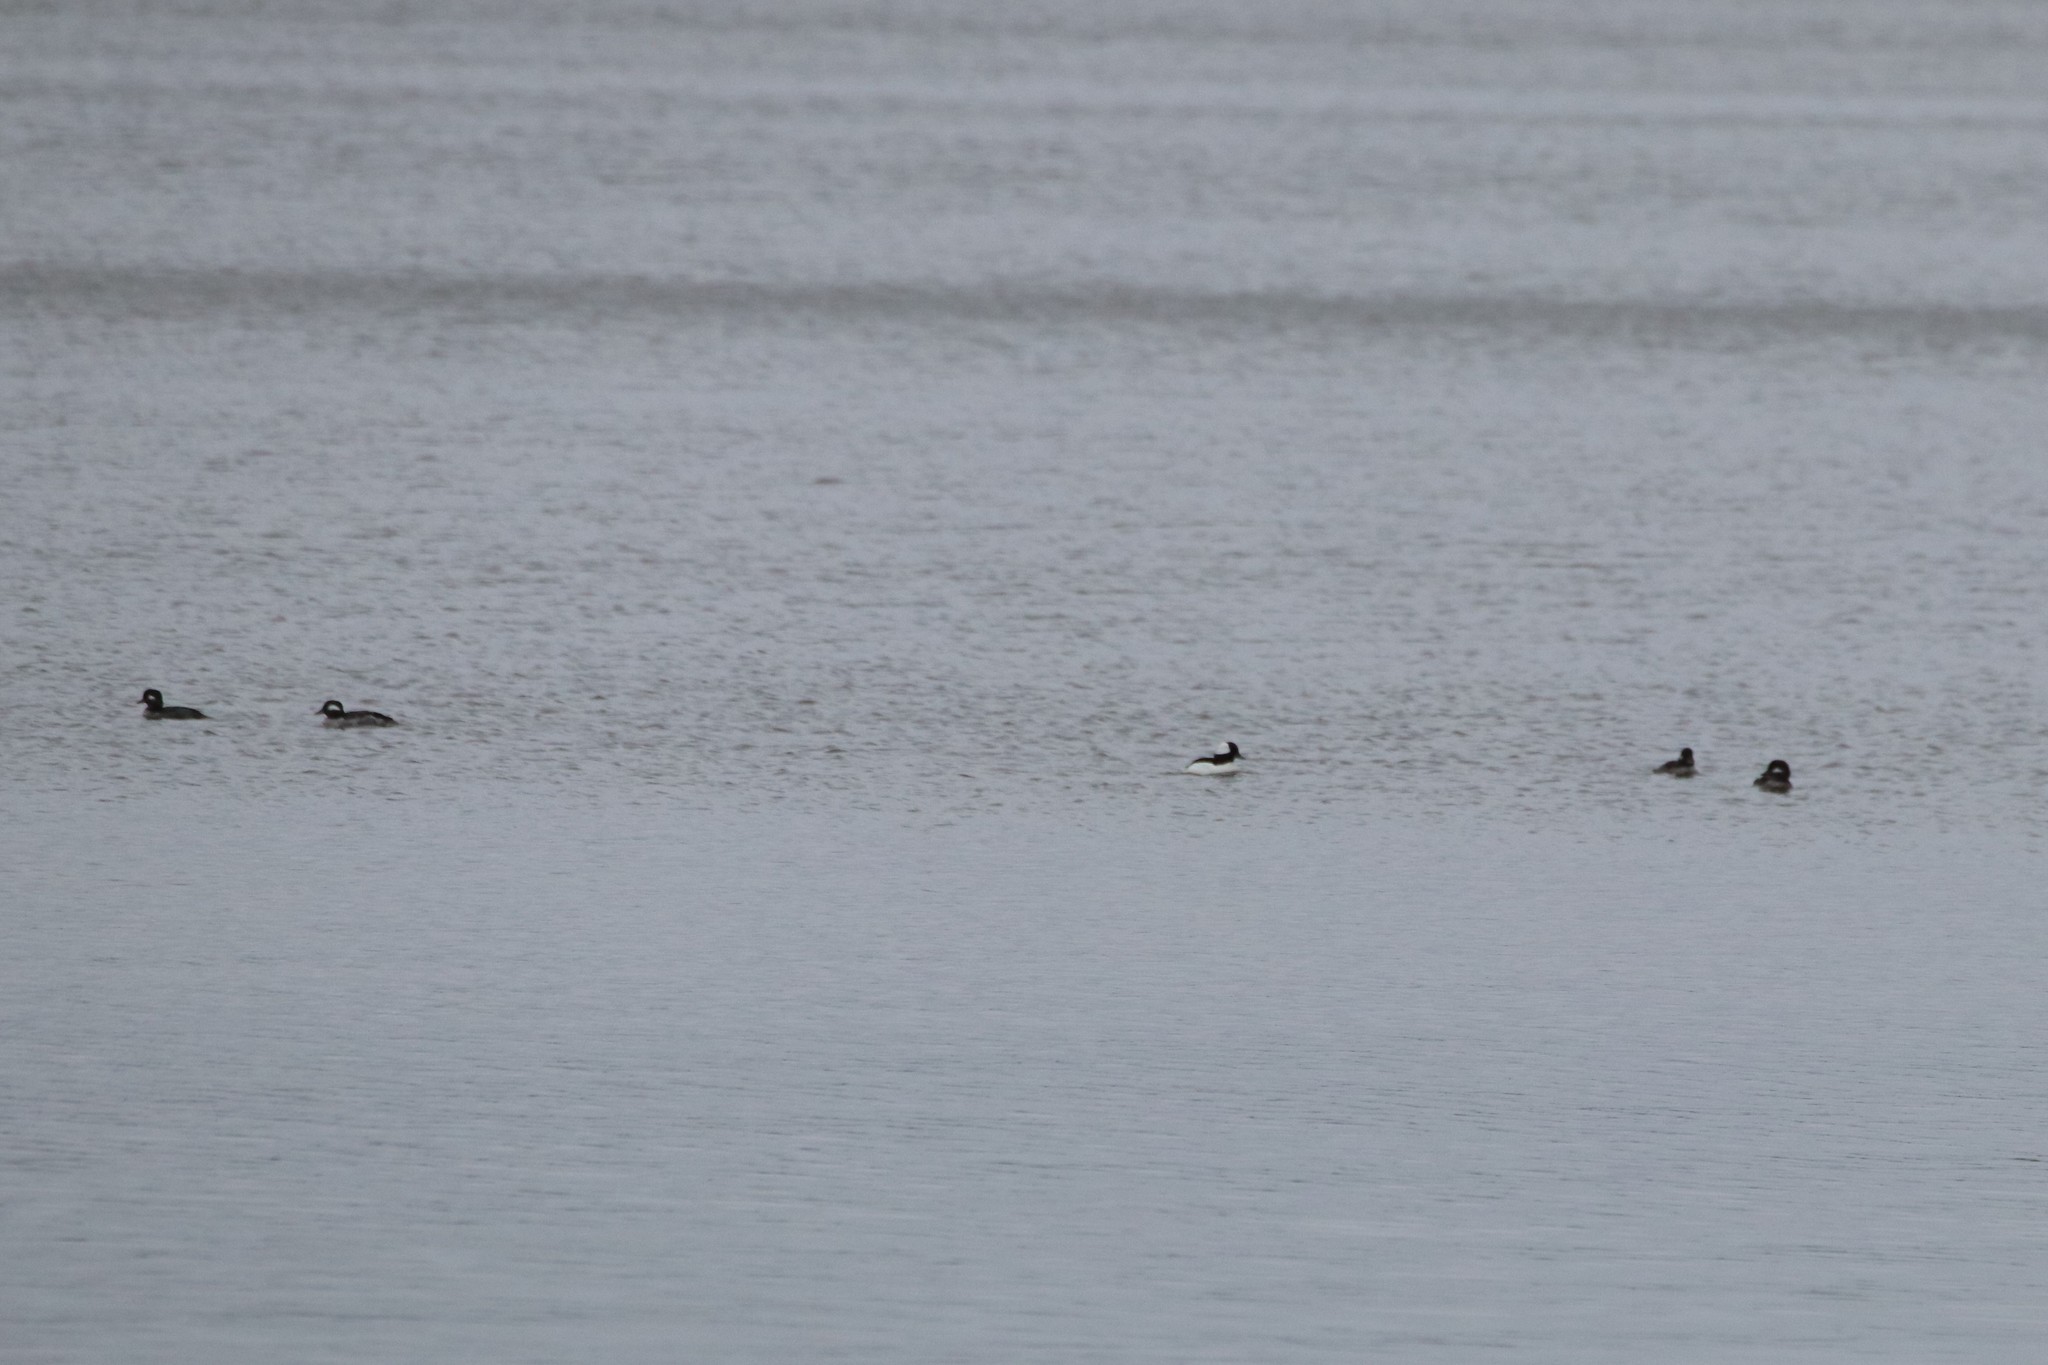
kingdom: Animalia
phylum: Chordata
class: Aves
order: Anseriformes
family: Anatidae
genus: Bucephala
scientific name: Bucephala albeola
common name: Bufflehead
